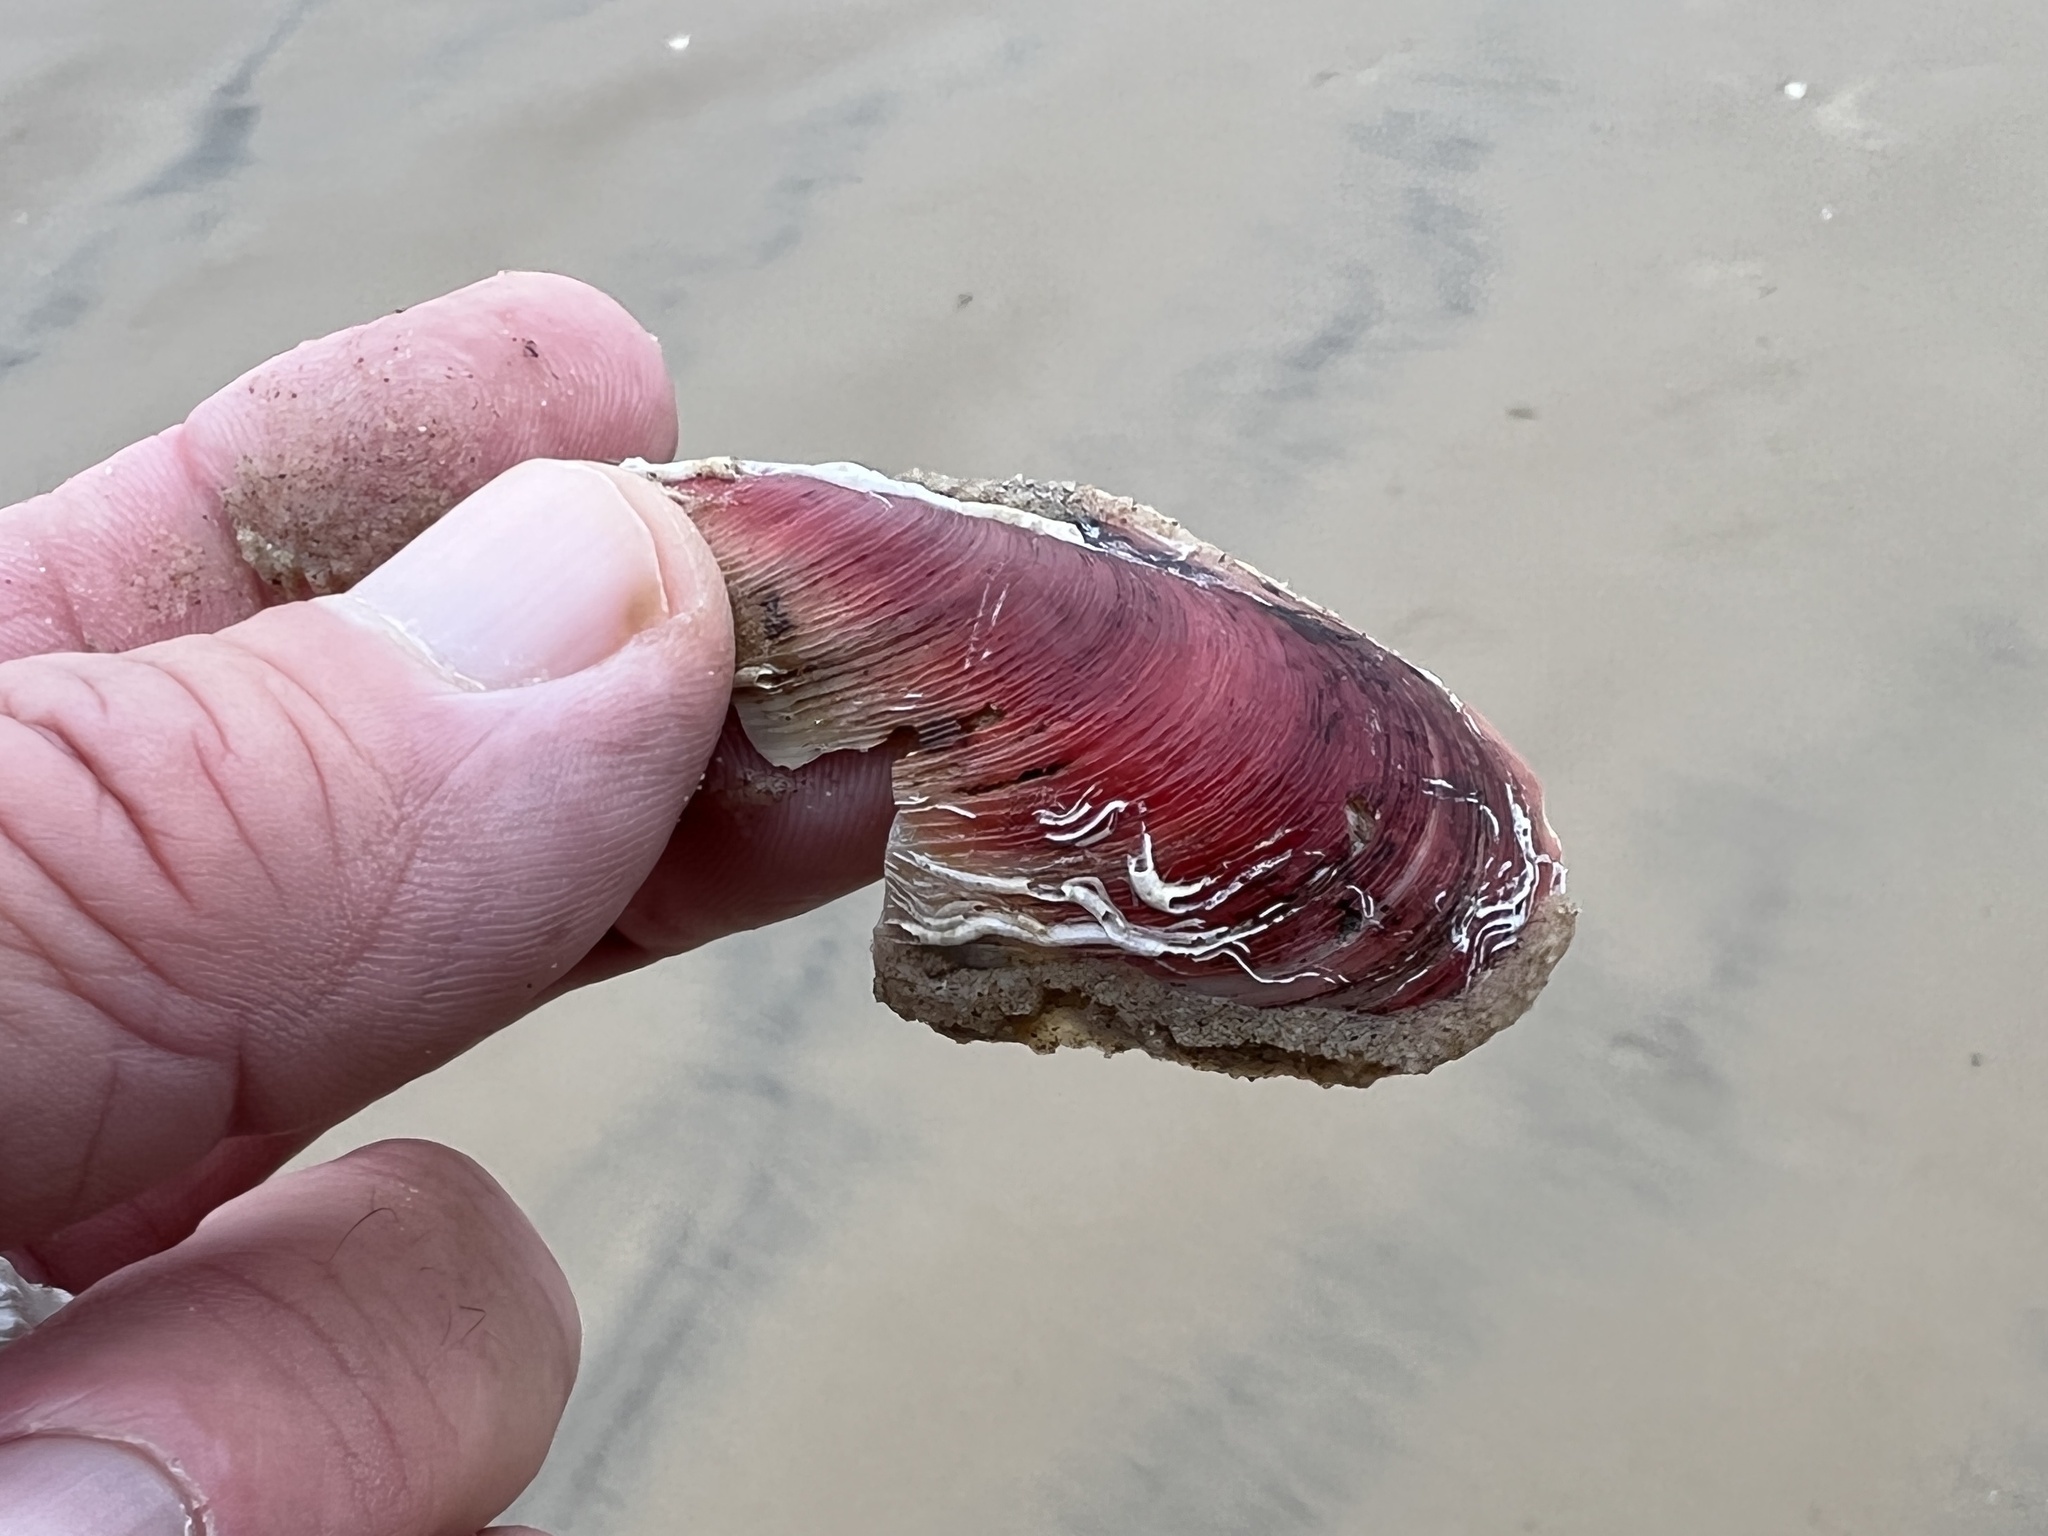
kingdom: Animalia
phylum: Mollusca
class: Bivalvia
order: Mytilida
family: Mytilidae
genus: Modiolus
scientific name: Modiolus americanus
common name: Tulip mussel
